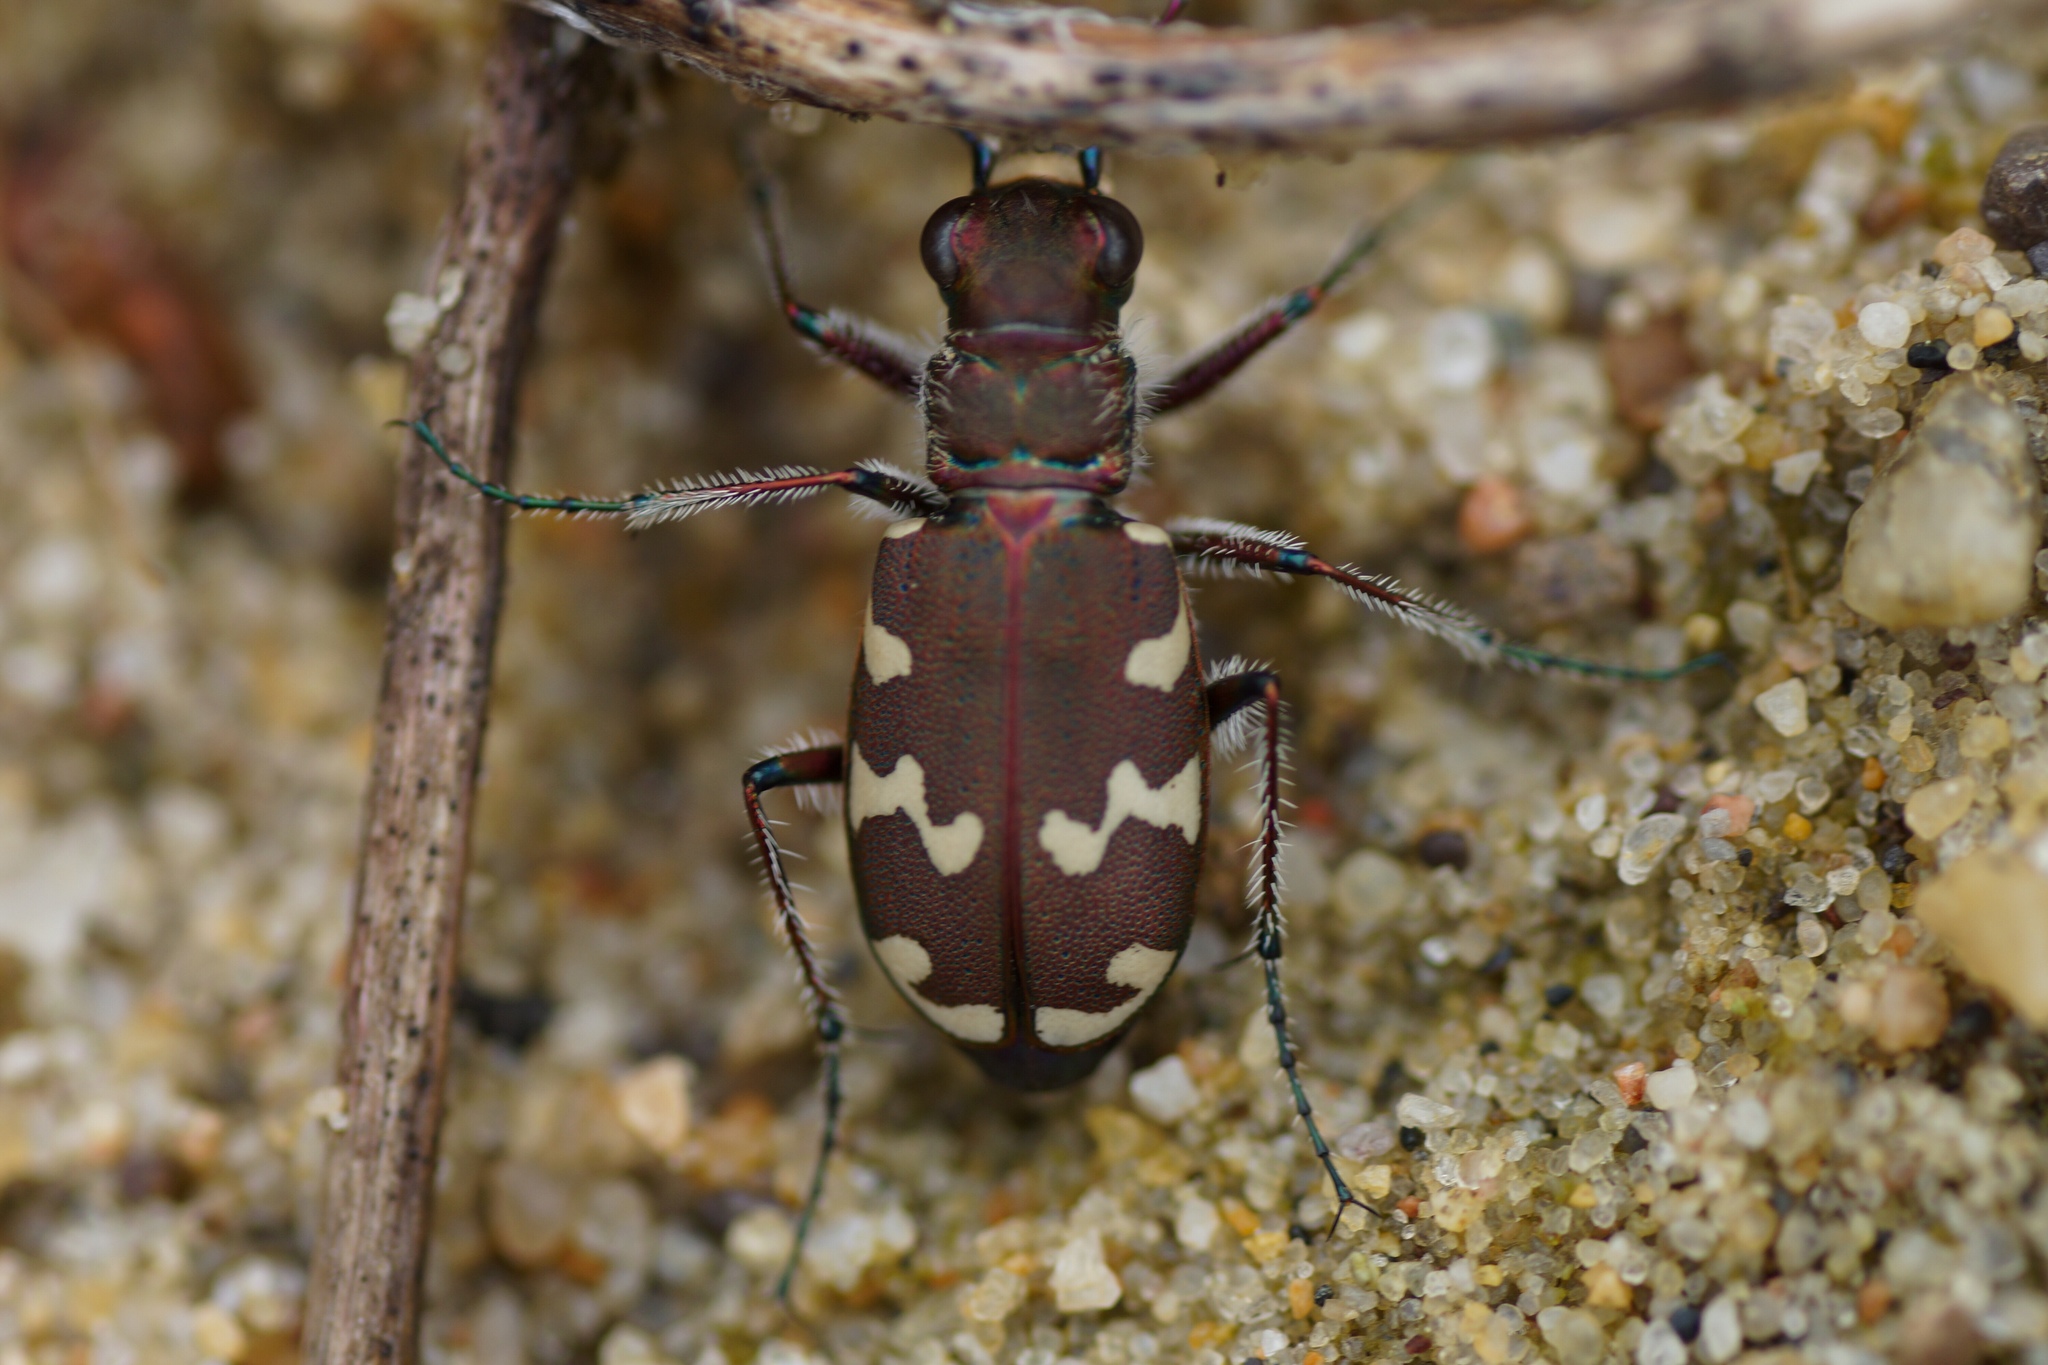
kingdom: Animalia
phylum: Arthropoda
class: Insecta
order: Coleoptera
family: Carabidae
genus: Cicindela
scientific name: Cicindela hybrida
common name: Northern dune tiger beetle
